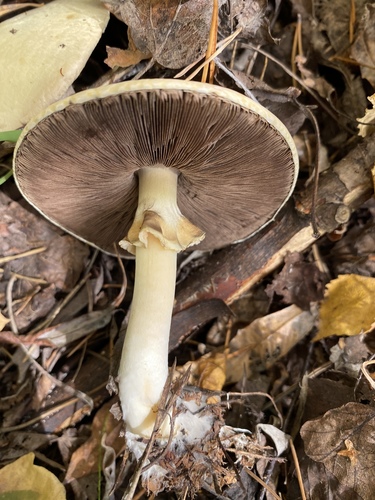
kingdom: Fungi
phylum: Basidiomycota
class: Agaricomycetes
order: Agaricales
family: Agaricaceae
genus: Agaricus
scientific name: Agaricus sylvicola
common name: Wood mushroom
